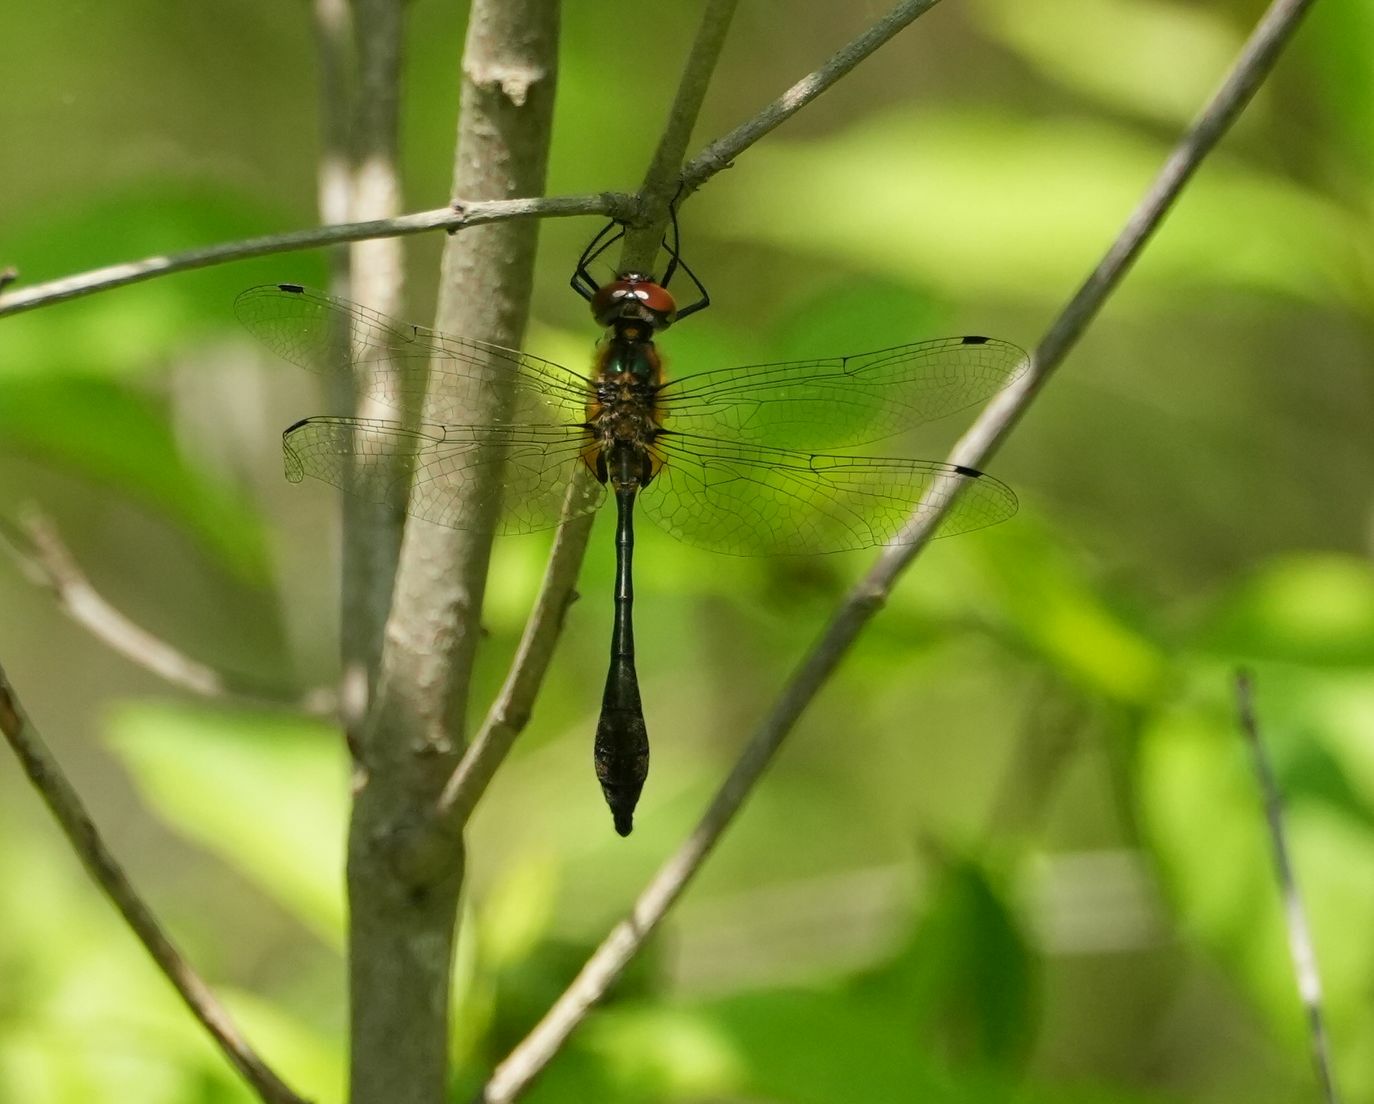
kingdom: Animalia
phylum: Arthropoda
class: Insecta
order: Odonata
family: Corduliidae
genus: Dorocordulia
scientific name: Dorocordulia libera
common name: Racket-tailed emerald
